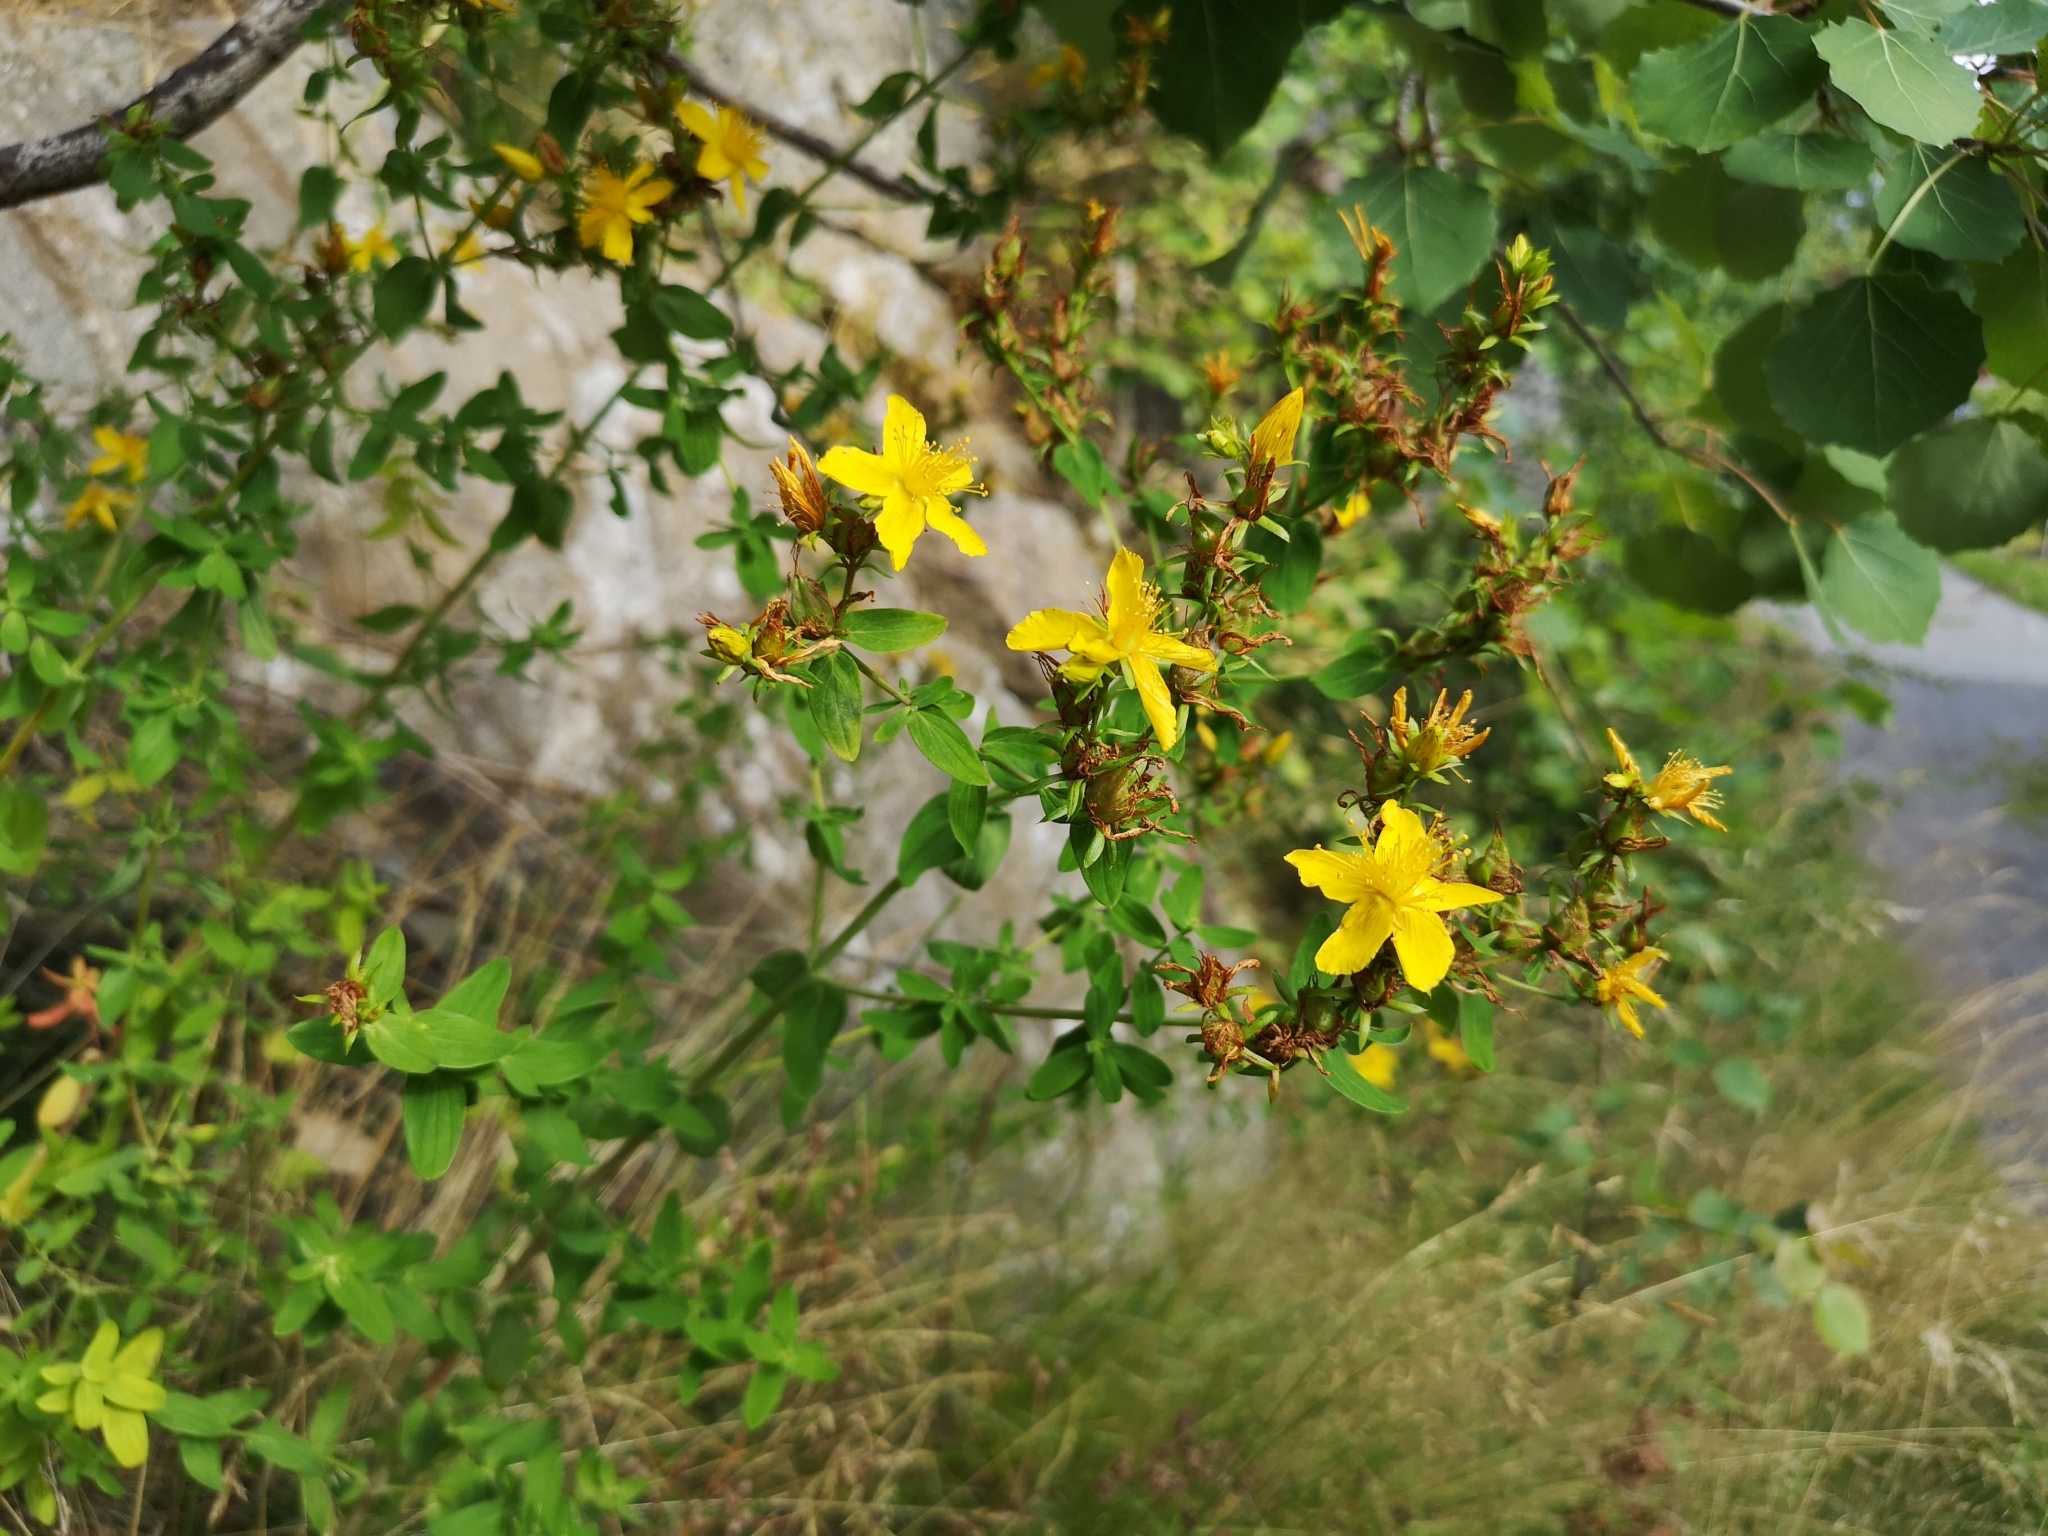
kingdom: Plantae
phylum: Tracheophyta
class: Magnoliopsida
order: Malpighiales
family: Hypericaceae
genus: Hypericum
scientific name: Hypericum perforatum
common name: Common st. johnswort
